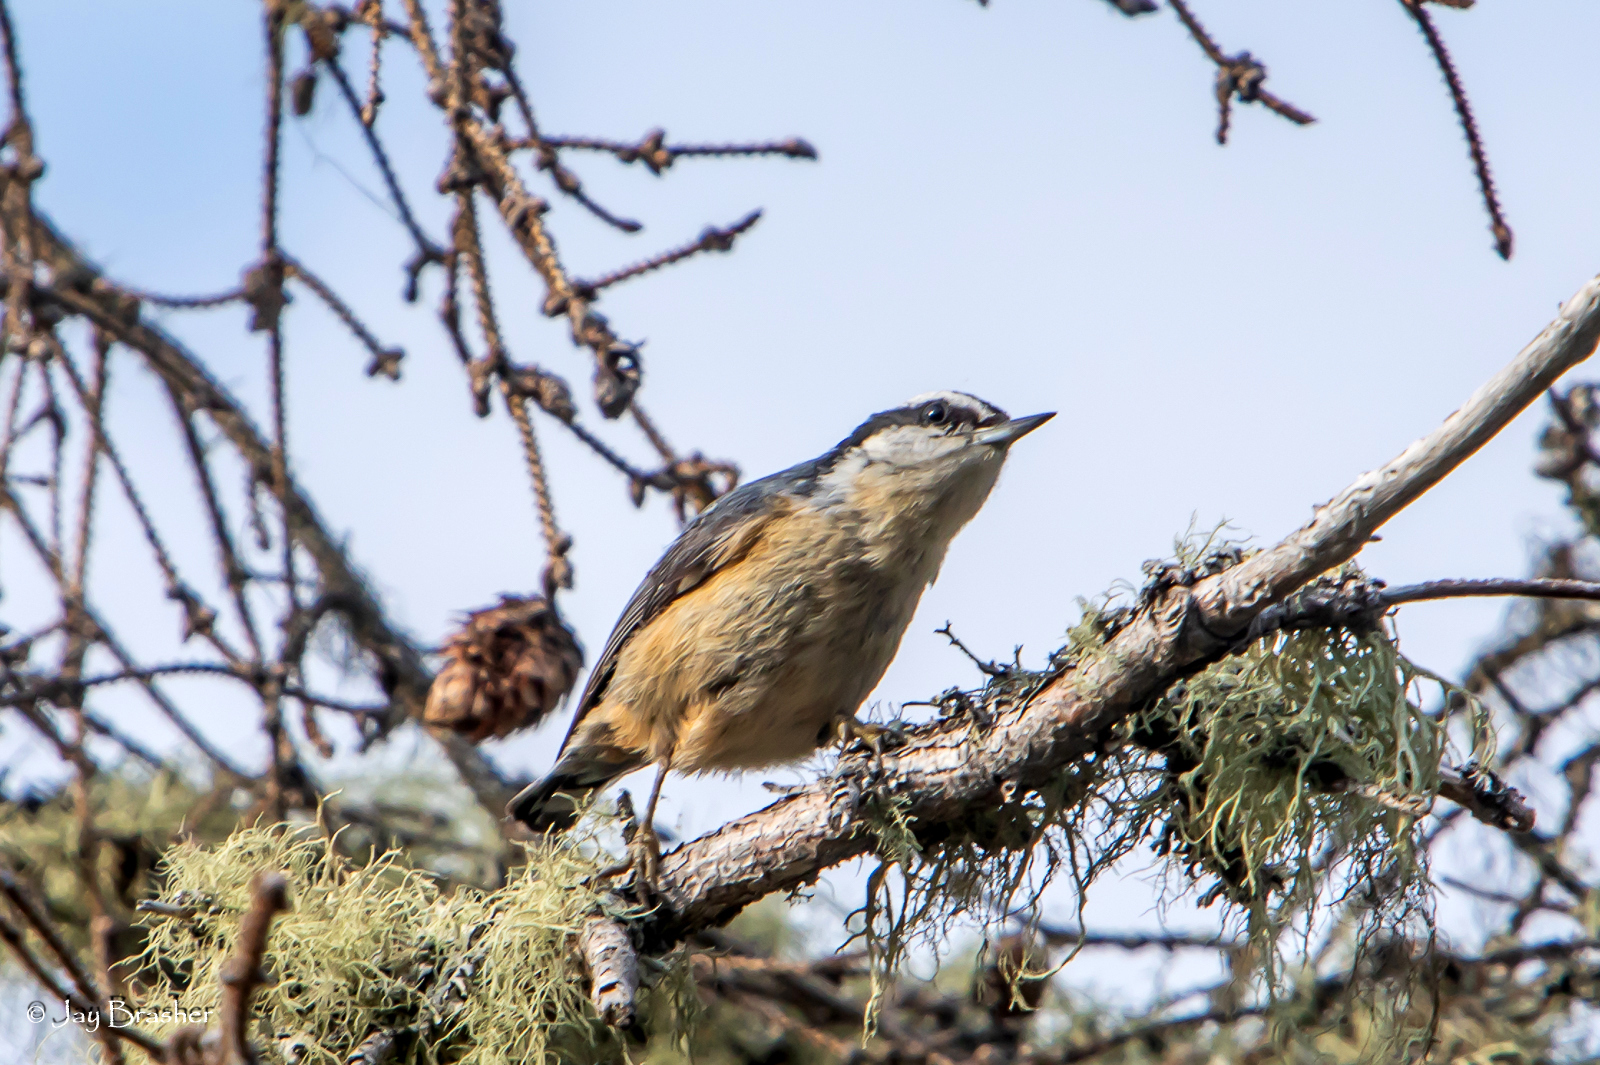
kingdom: Animalia
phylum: Chordata
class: Aves
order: Passeriformes
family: Sittidae
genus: Sitta
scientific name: Sitta canadensis
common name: Red-breasted nuthatch
